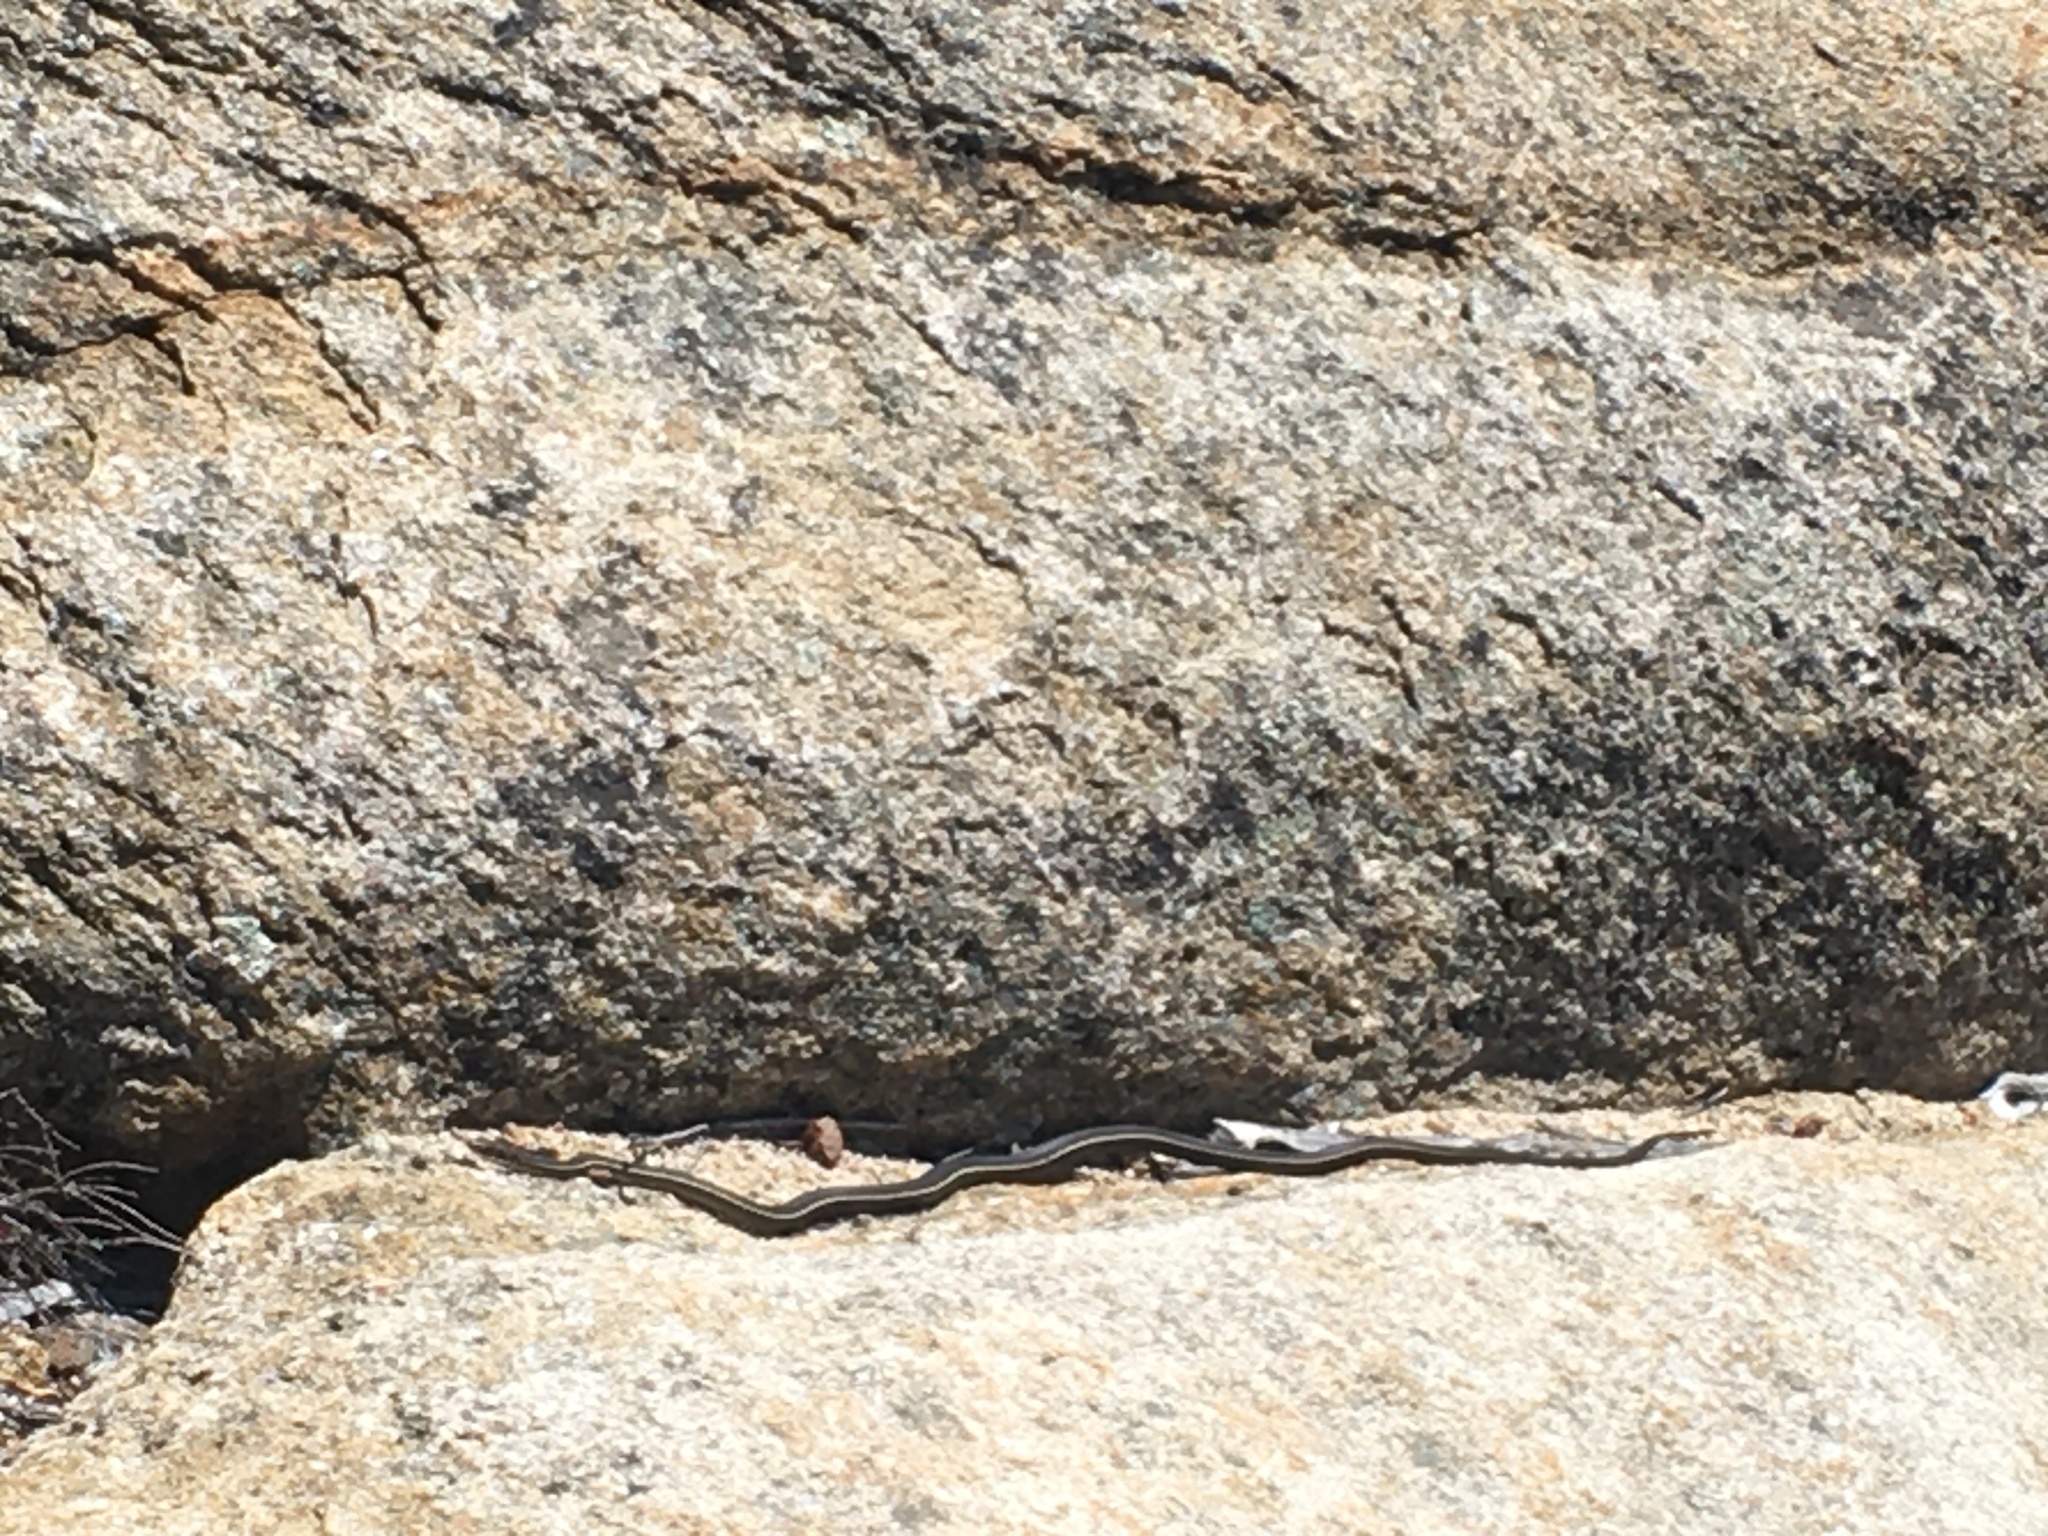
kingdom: Animalia
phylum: Chordata
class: Squamata
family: Colubridae
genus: Masticophis
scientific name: Masticophis lateralis
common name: Striped racer
